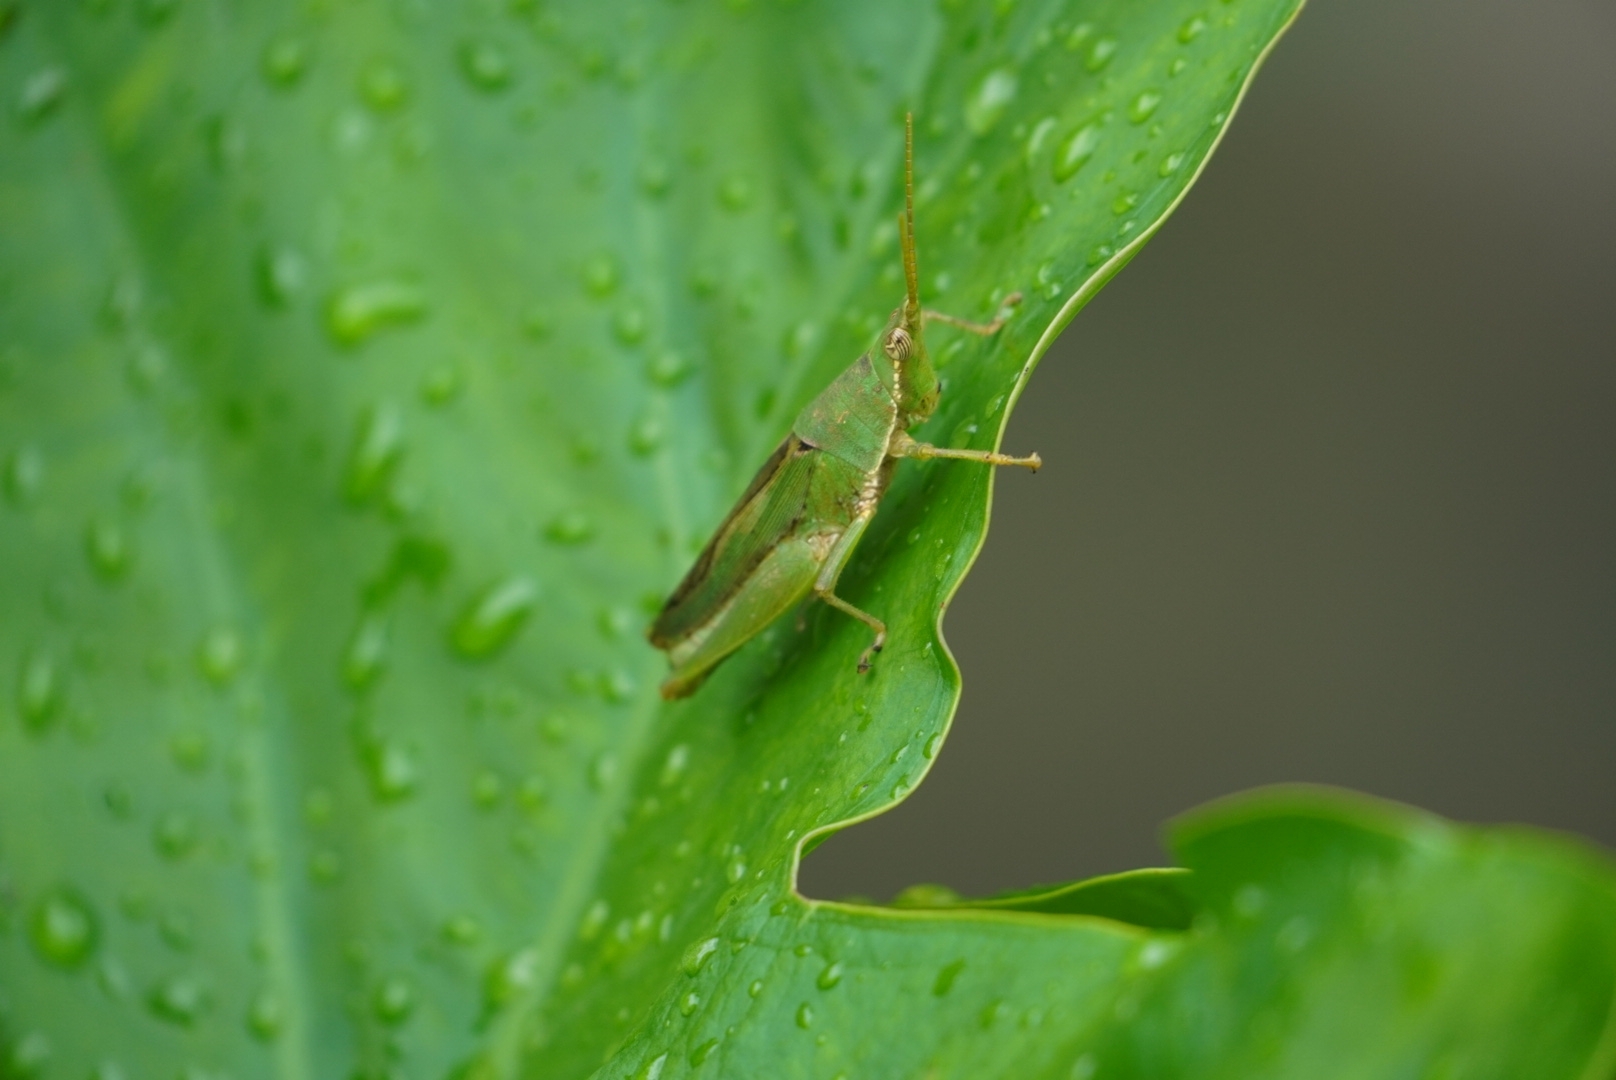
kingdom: Animalia
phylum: Arthropoda
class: Insecta
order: Orthoptera
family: Pyrgomorphidae
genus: Tagasta
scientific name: Tagasta marginella
